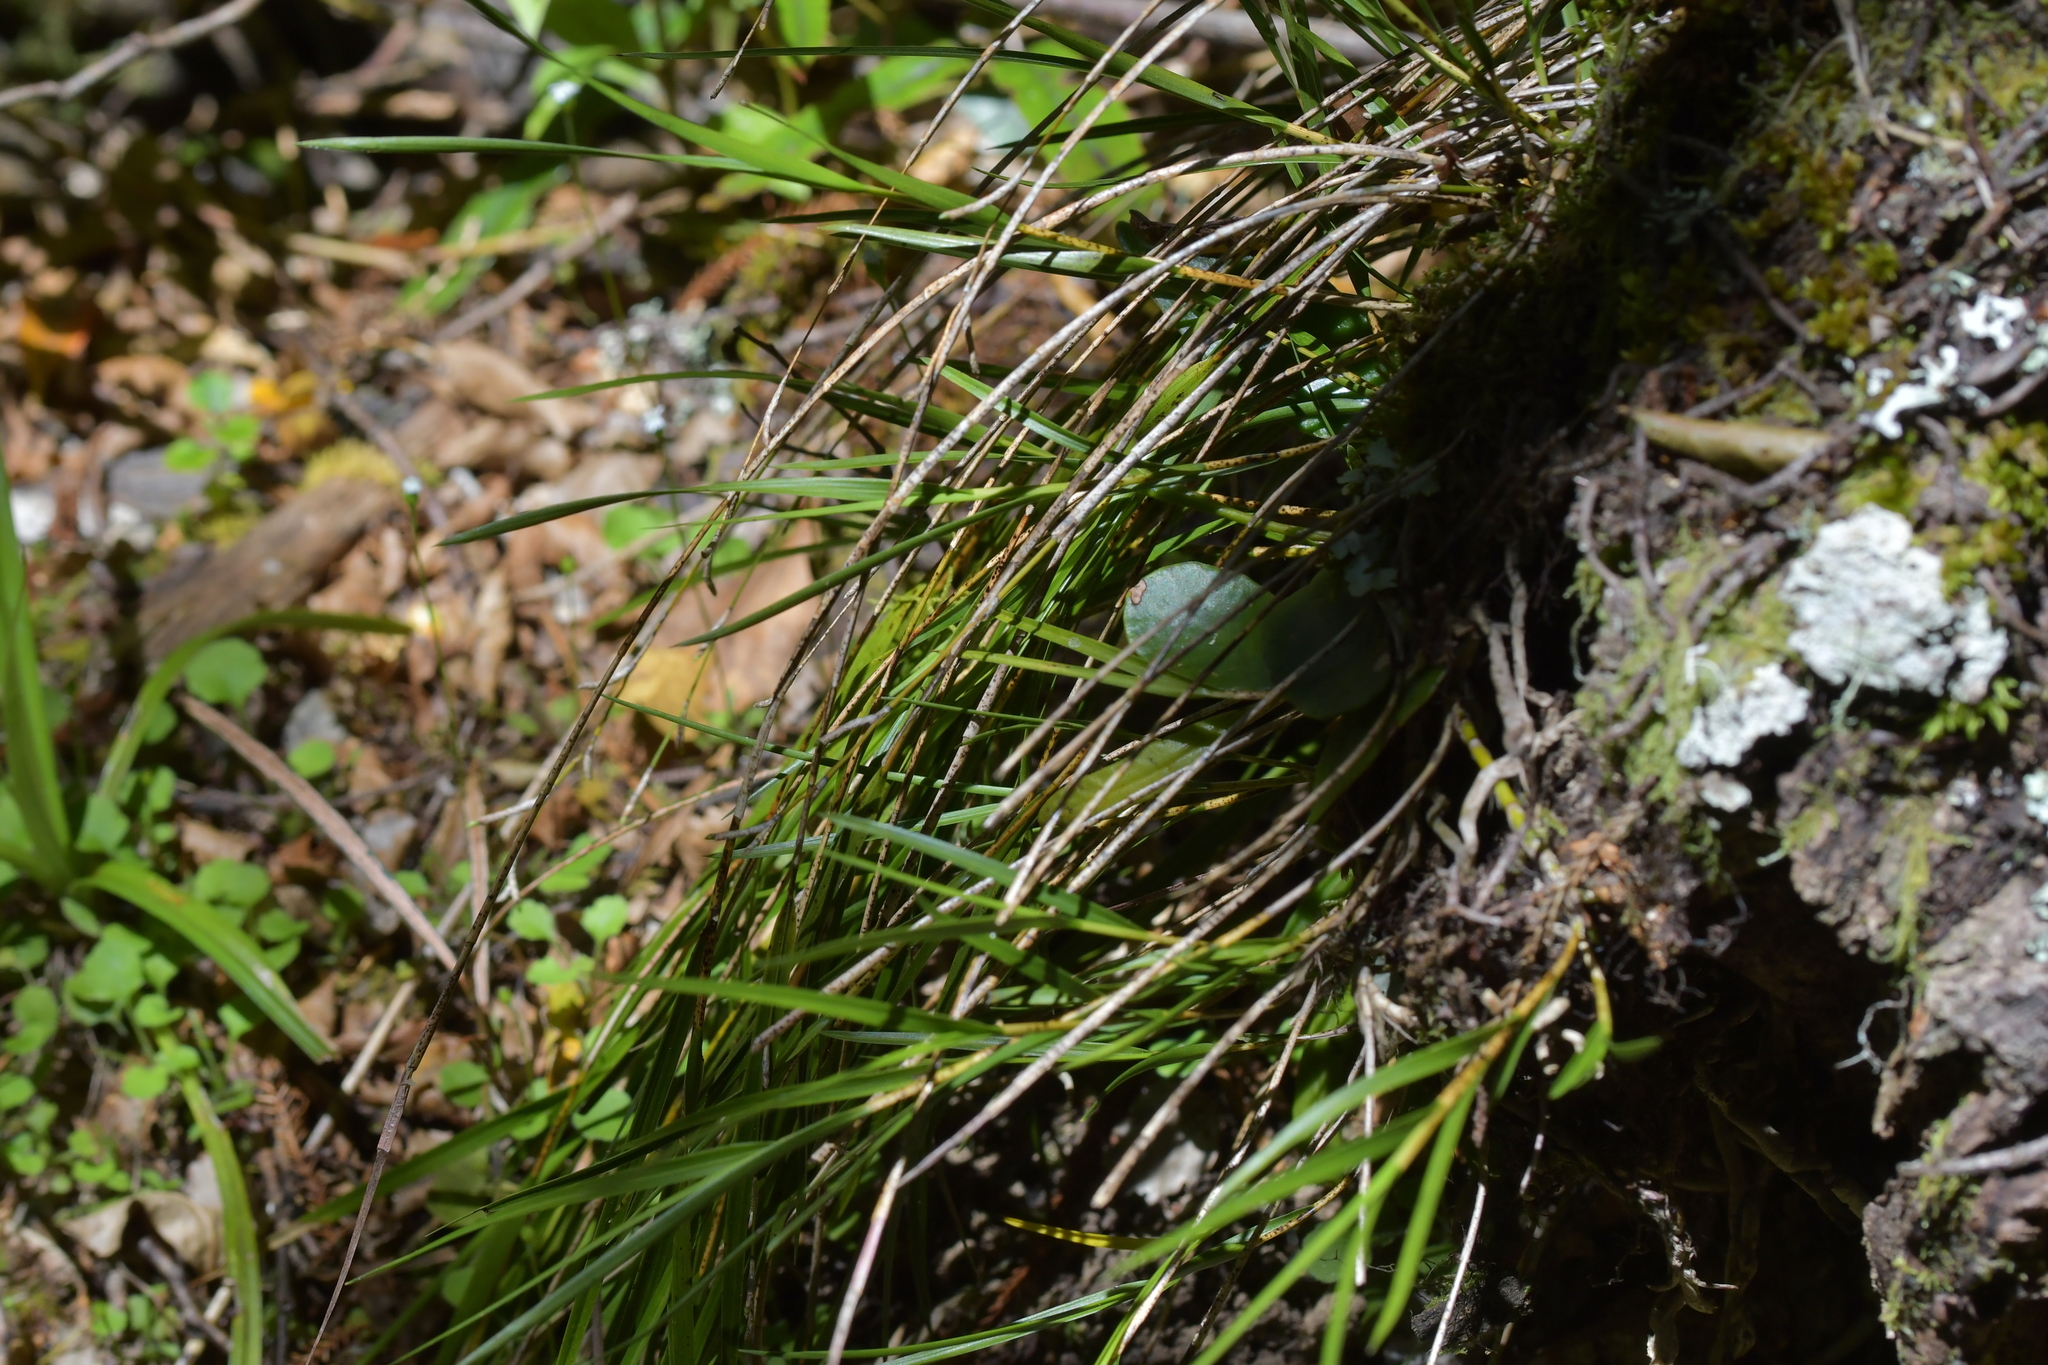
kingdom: Plantae
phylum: Tracheophyta
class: Liliopsida
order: Asparagales
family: Orchidaceae
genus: Earina
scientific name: Earina mucronata
